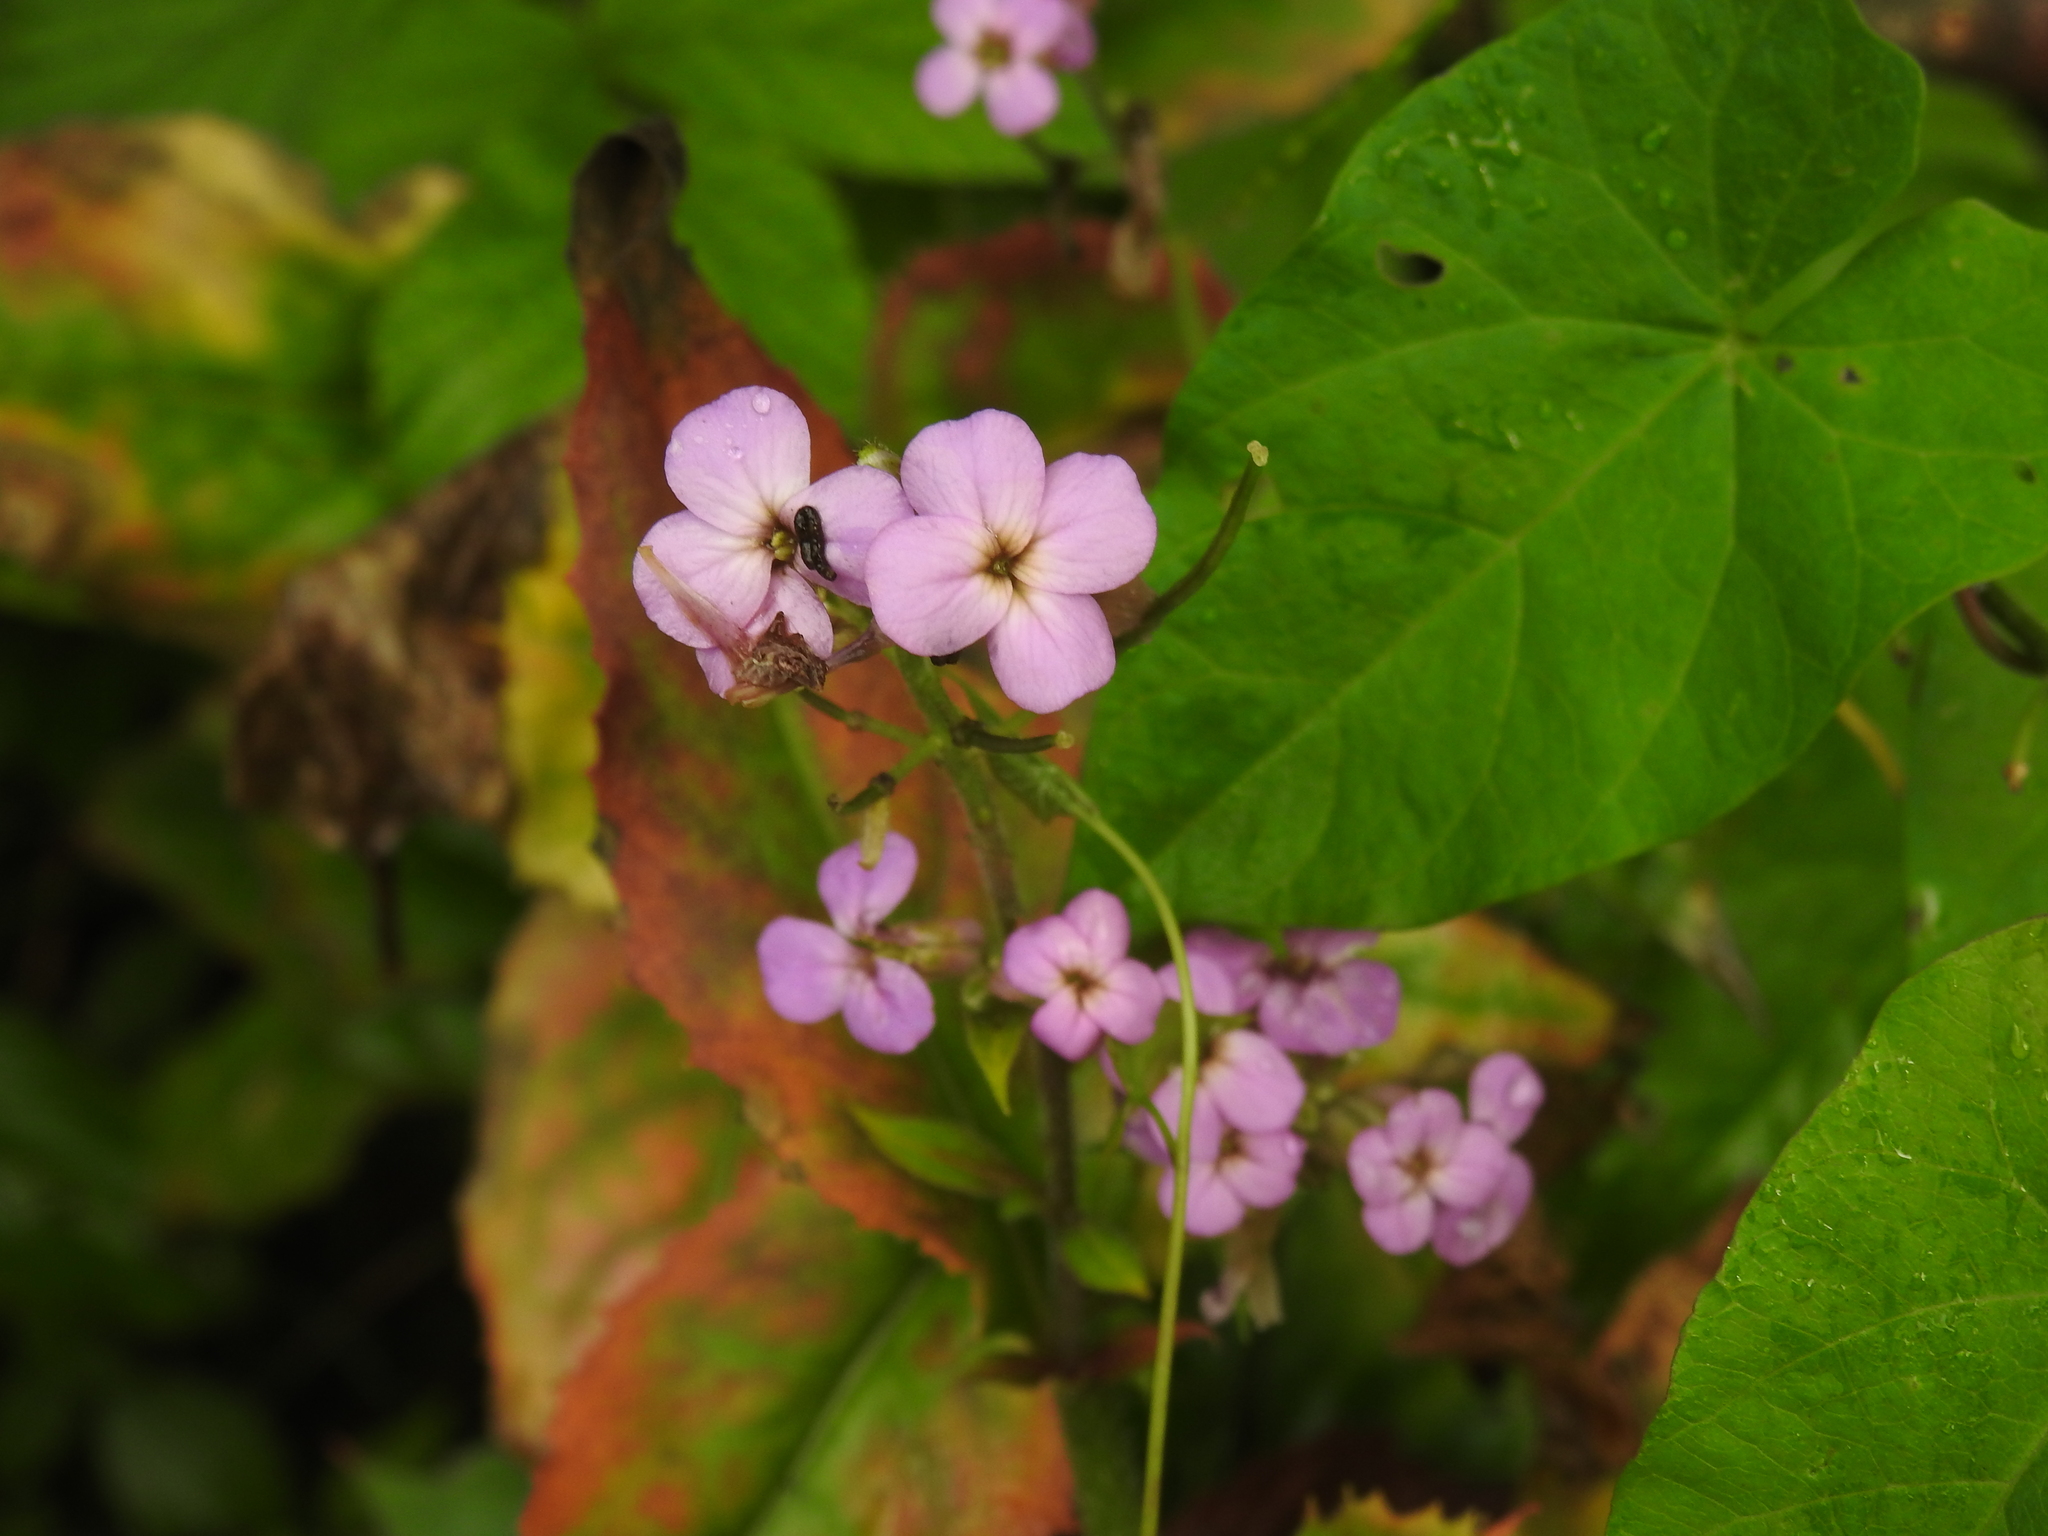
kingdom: Plantae
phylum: Tracheophyta
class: Magnoliopsida
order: Brassicales
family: Brassicaceae
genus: Hesperis
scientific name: Hesperis matronalis
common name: Dame's-violet
